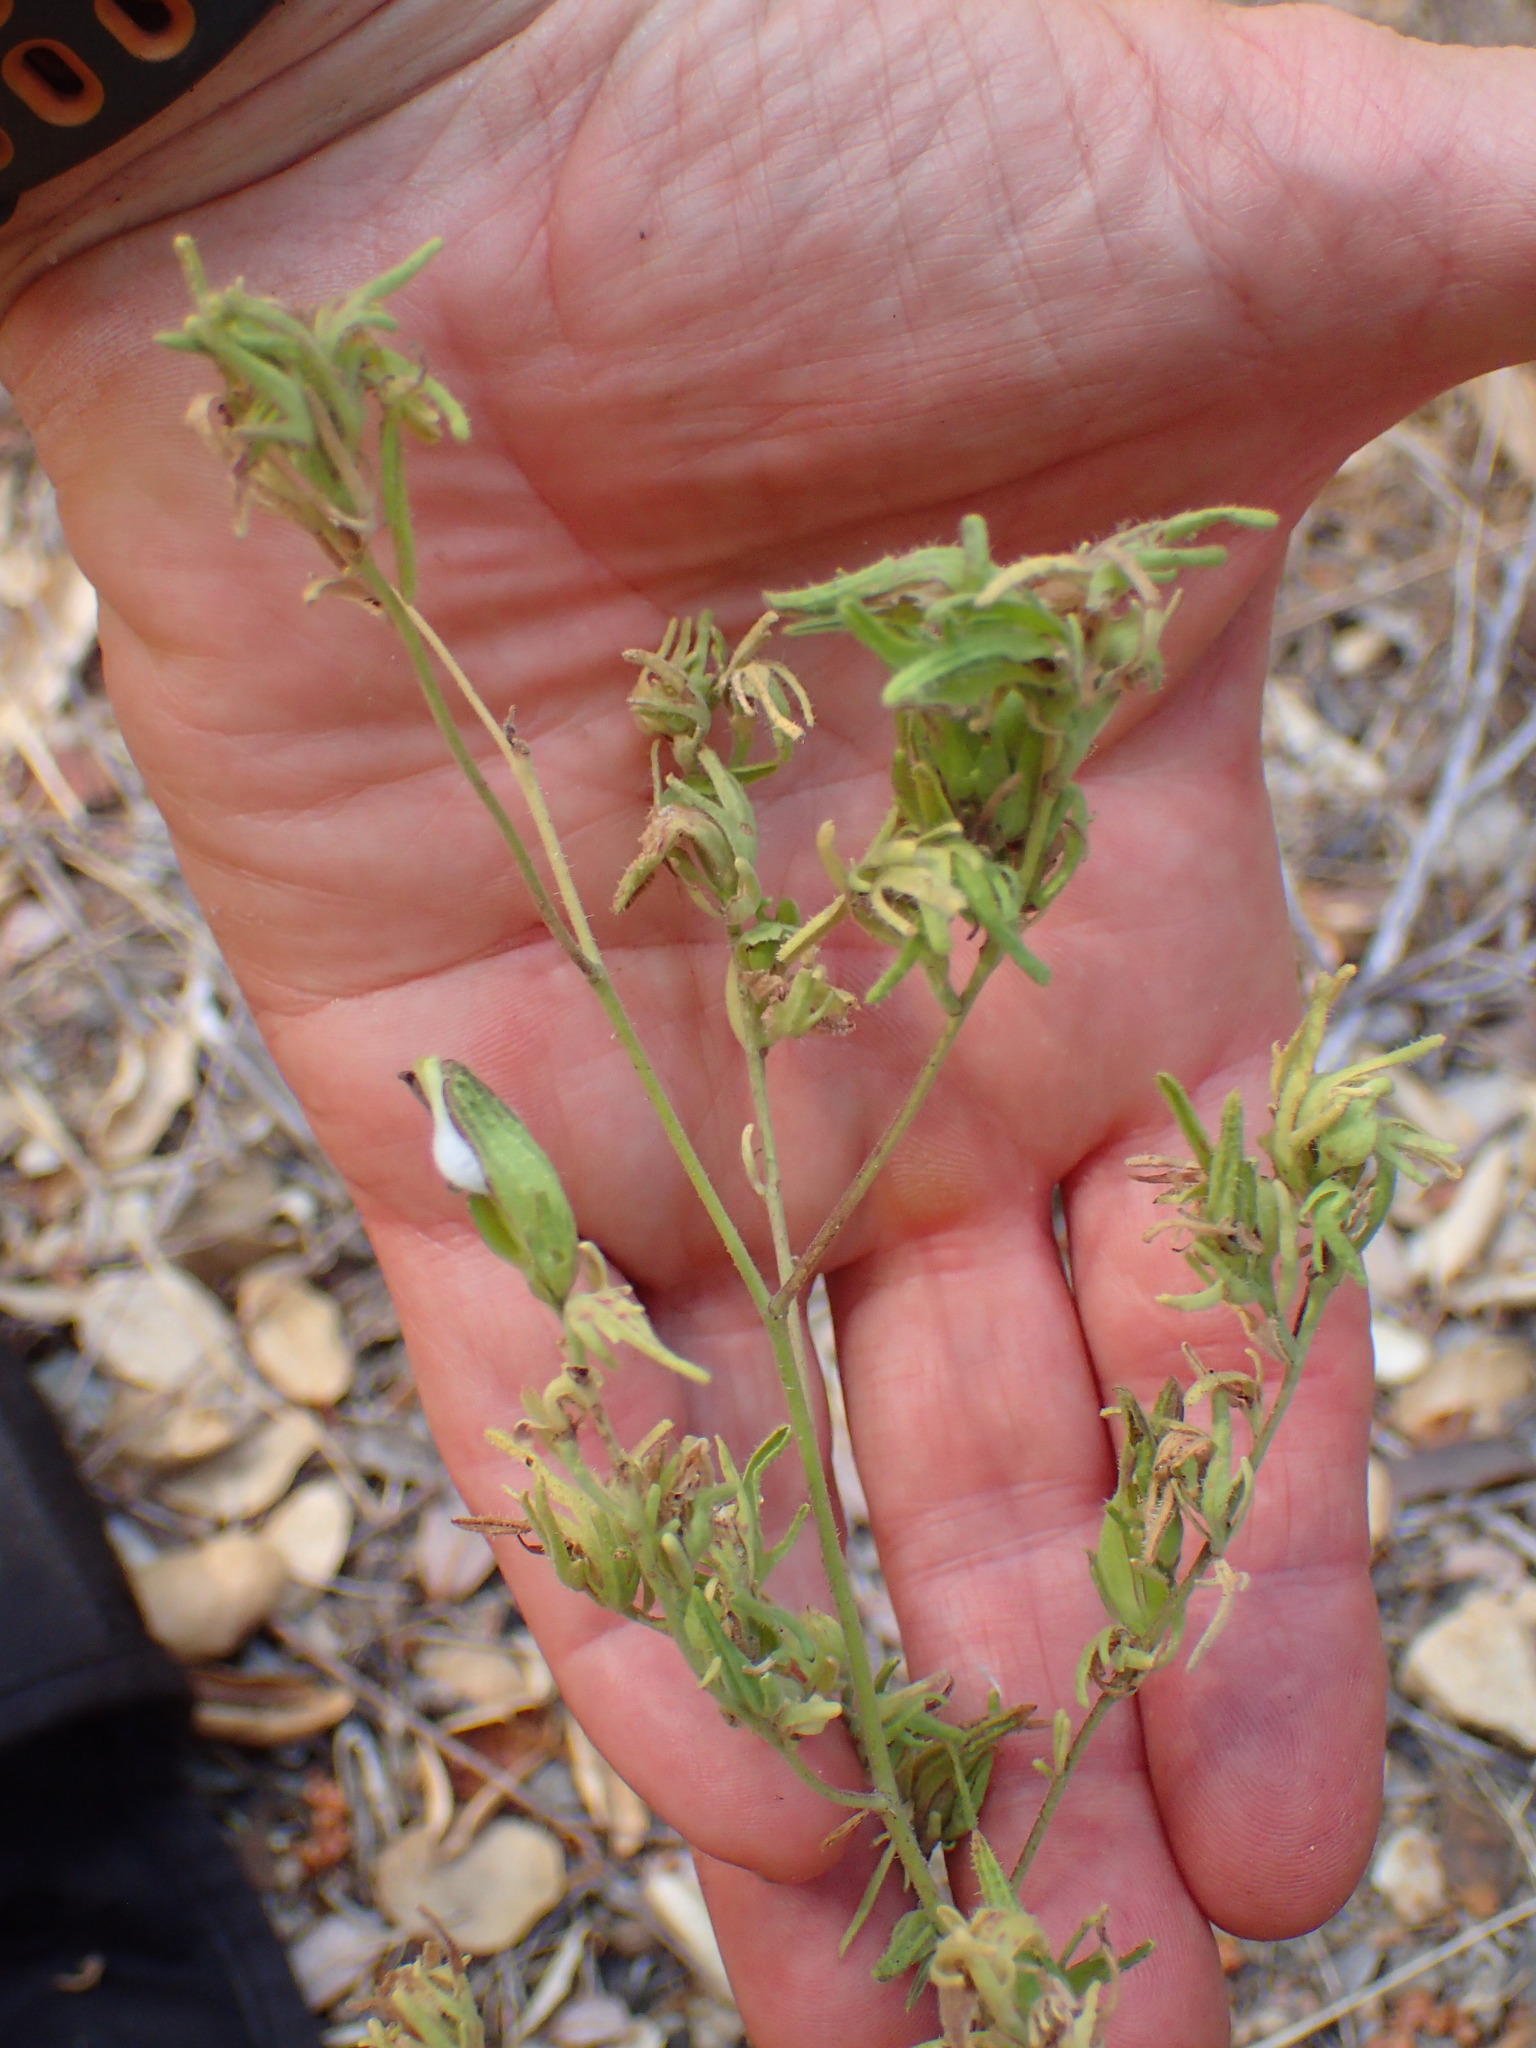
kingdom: Plantae
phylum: Tracheophyta
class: Magnoliopsida
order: Lamiales
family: Orobanchaceae
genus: Cordylanthus
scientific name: Cordylanthus rigidus
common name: Stiff-branch bird's-beak
